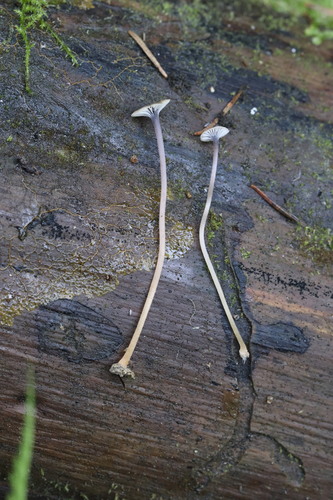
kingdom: Fungi
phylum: Basidiomycota
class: Agaricomycetes
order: Hymenochaetales
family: Rickenellaceae
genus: Rickenella
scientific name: Rickenella swartzii
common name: Collared mosscap
